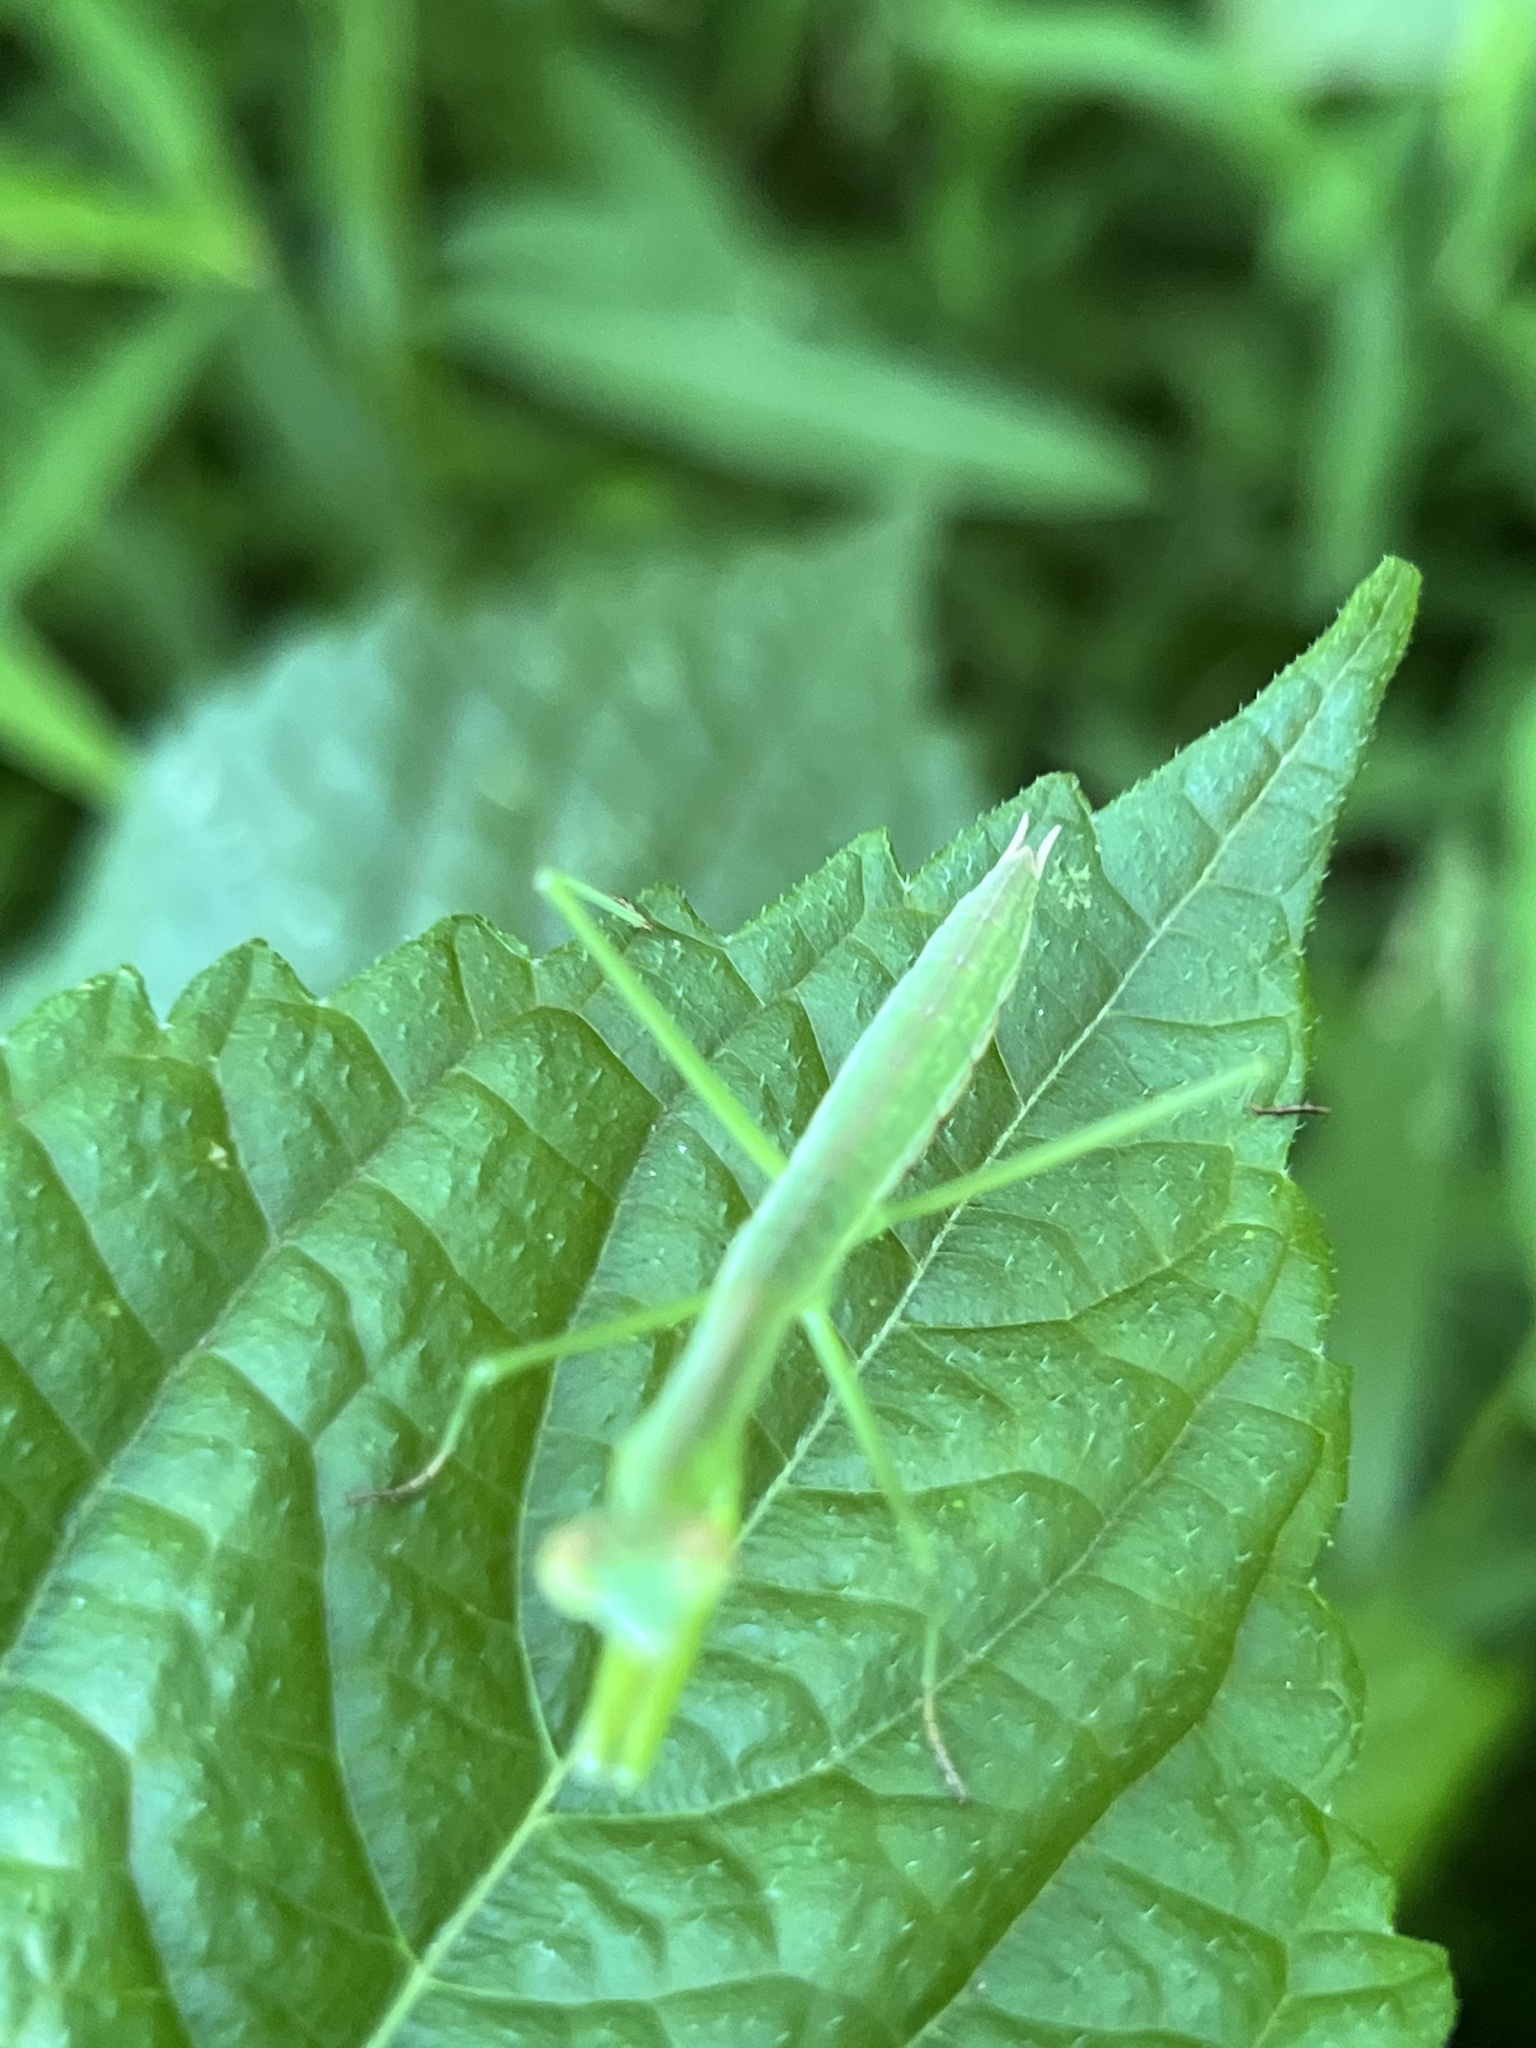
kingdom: Animalia
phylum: Arthropoda
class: Insecta
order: Mantodea
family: Mantidae
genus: Tenodera
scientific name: Tenodera sinensis
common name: Chinese mantis
